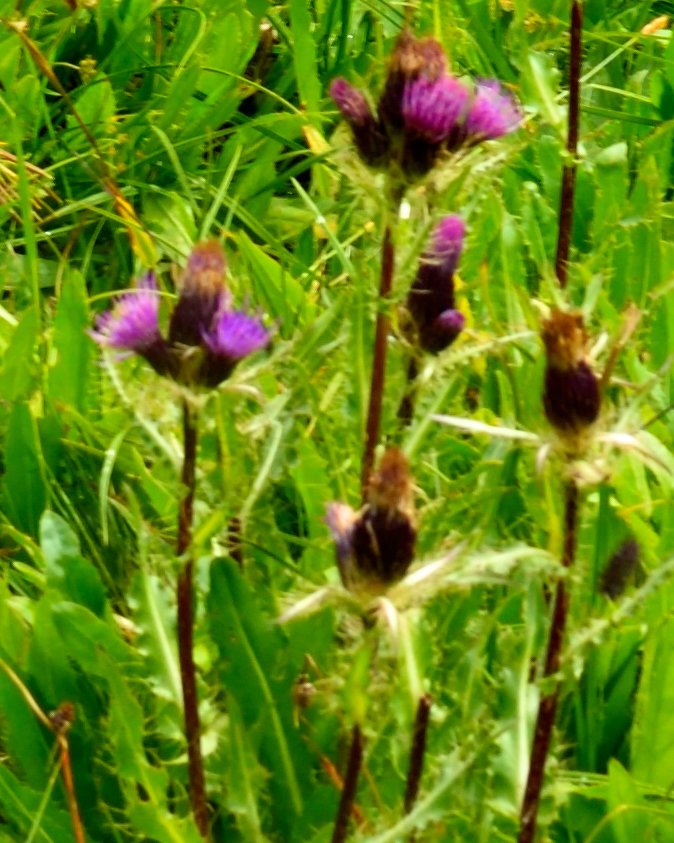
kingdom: Plantae
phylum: Tracheophyta
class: Magnoliopsida
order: Asterales
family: Asteraceae
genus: Cirsium
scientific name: Cirsium simplex
